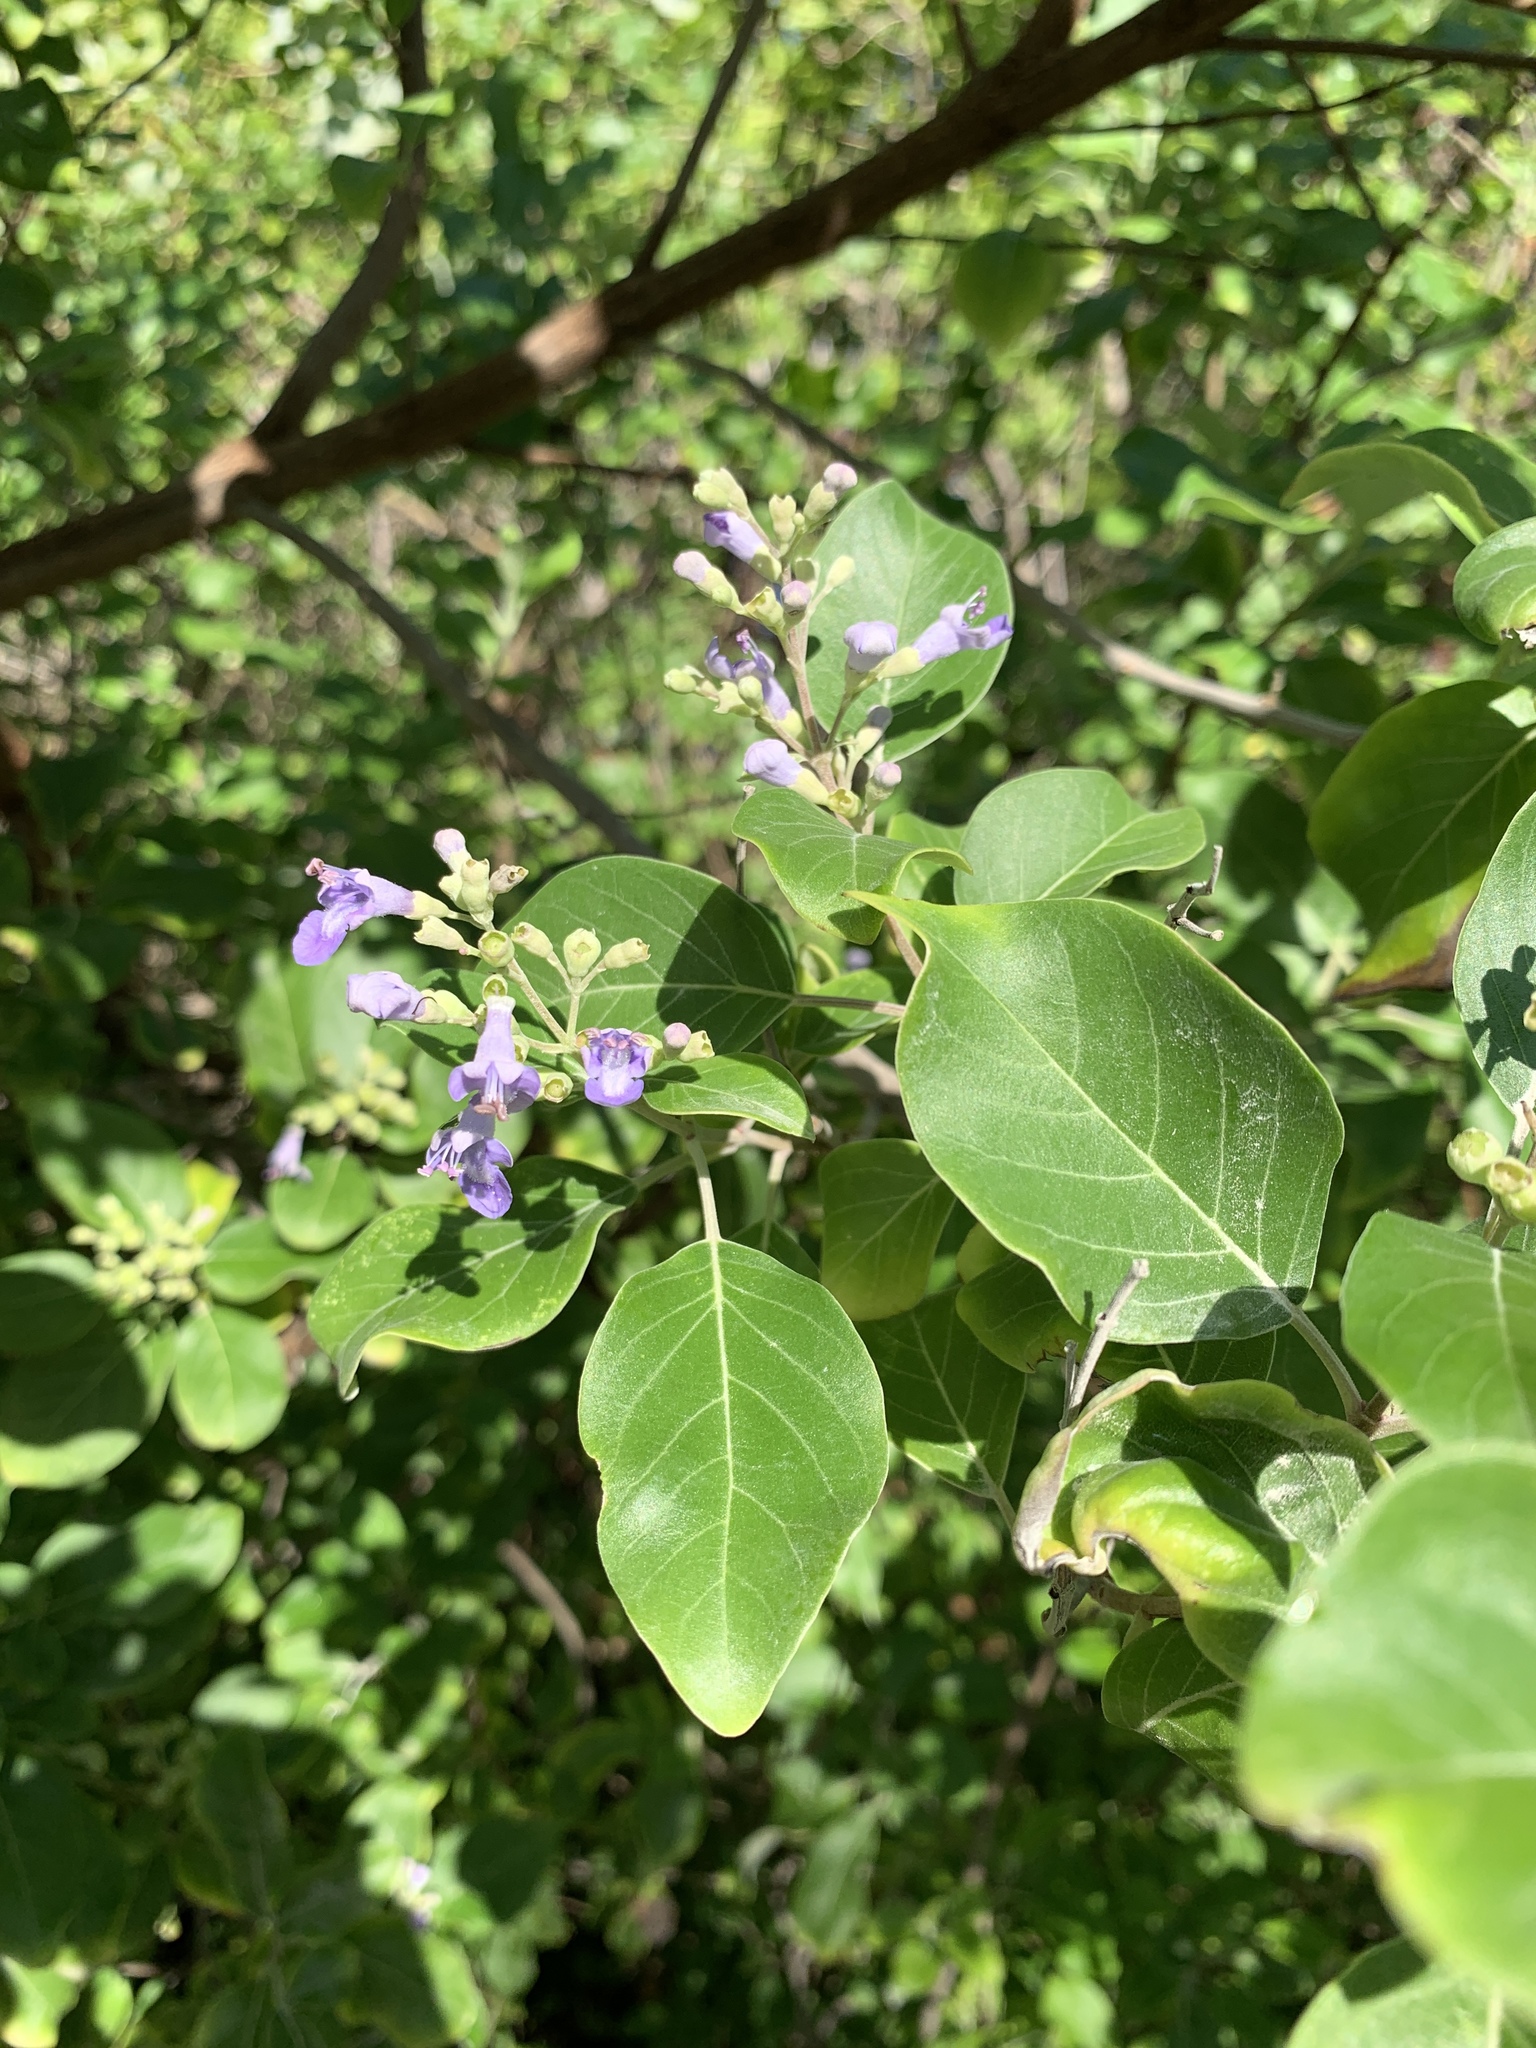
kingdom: Plantae
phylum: Tracheophyta
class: Magnoliopsida
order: Lamiales
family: Lamiaceae
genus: Vitex
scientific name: Vitex trifolia
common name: Simpleleaf chastetree
